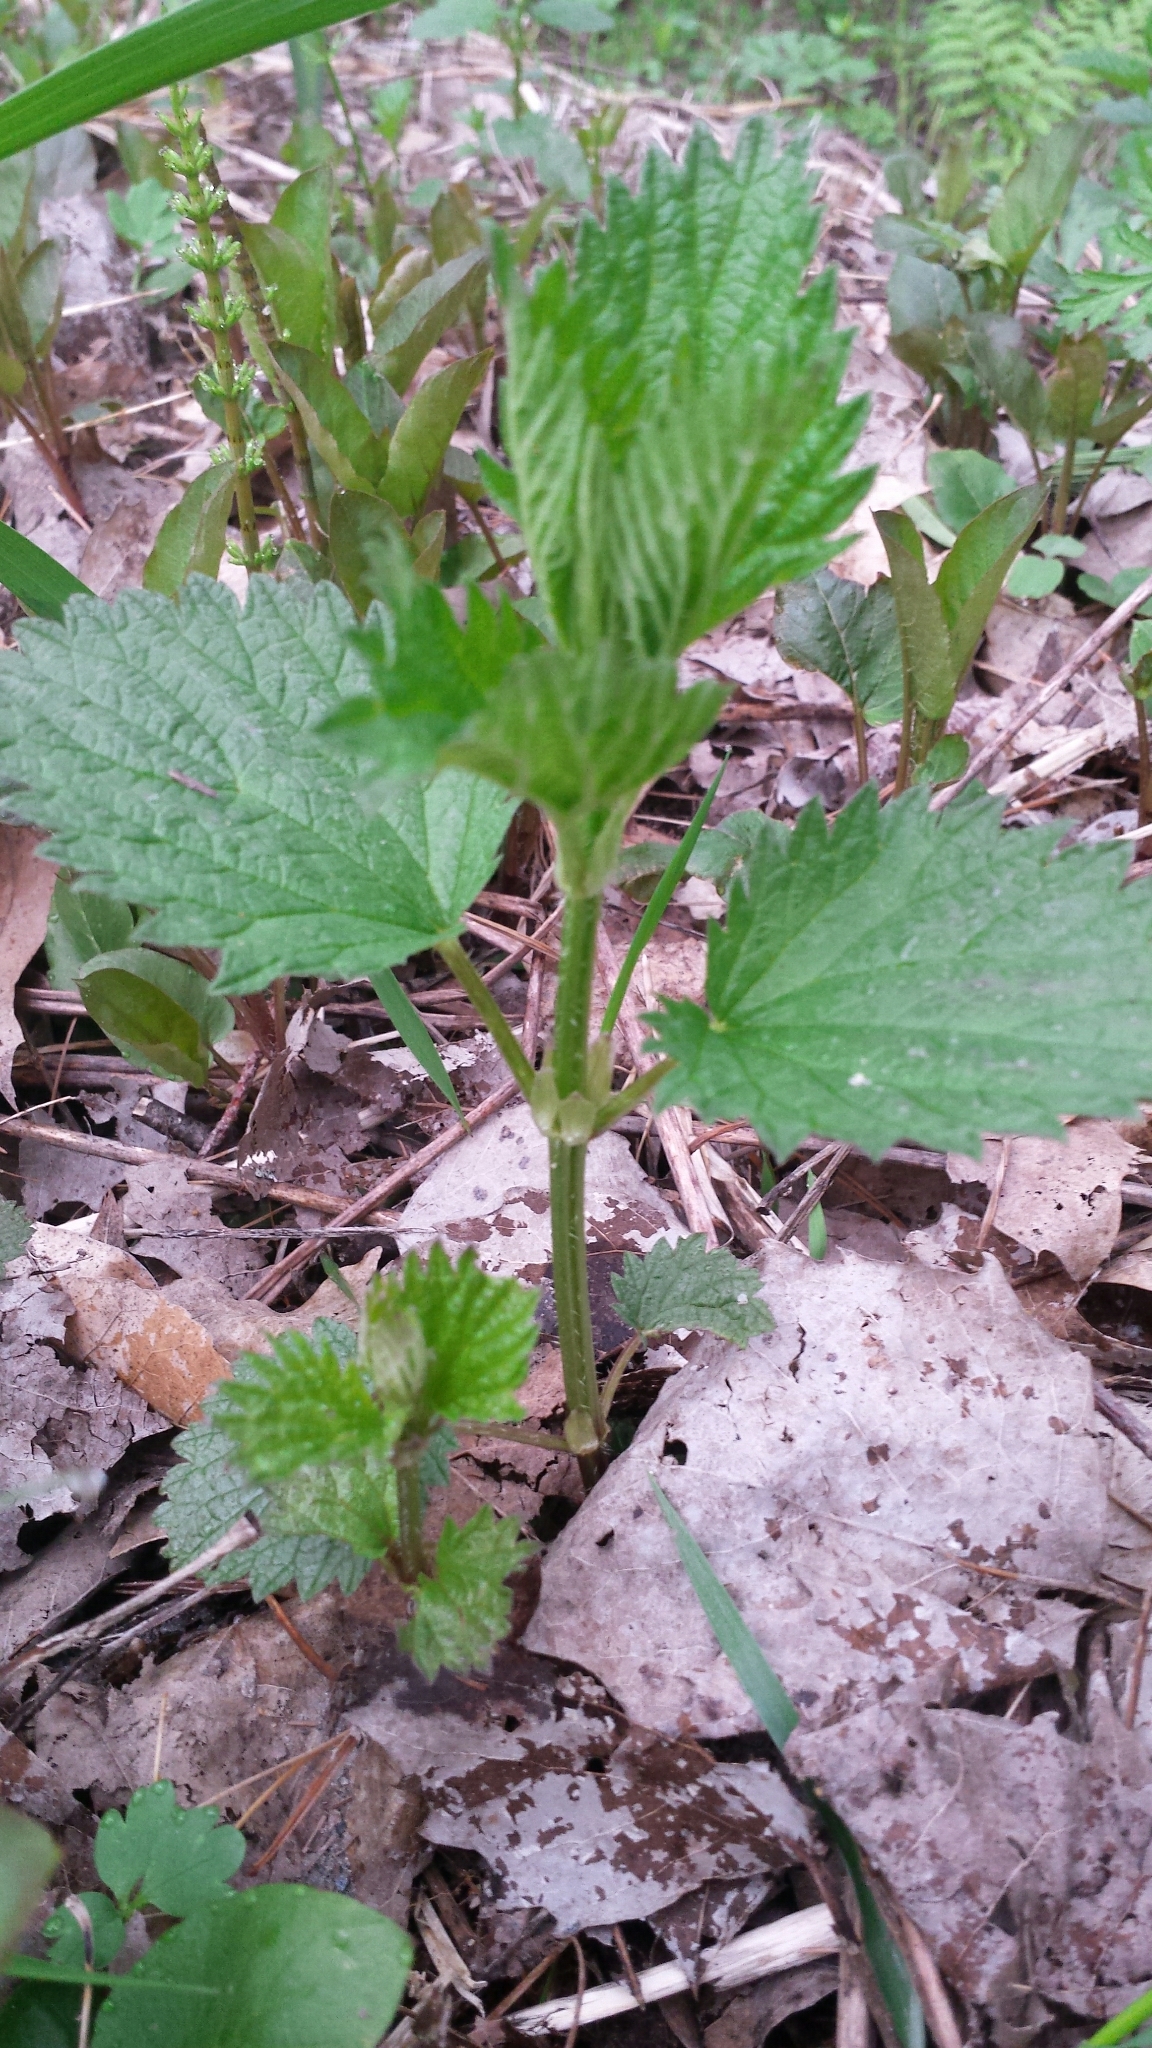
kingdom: Plantae
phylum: Tracheophyta
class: Magnoliopsida
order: Rosales
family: Urticaceae
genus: Urtica
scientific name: Urtica dioica
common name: Common nettle
